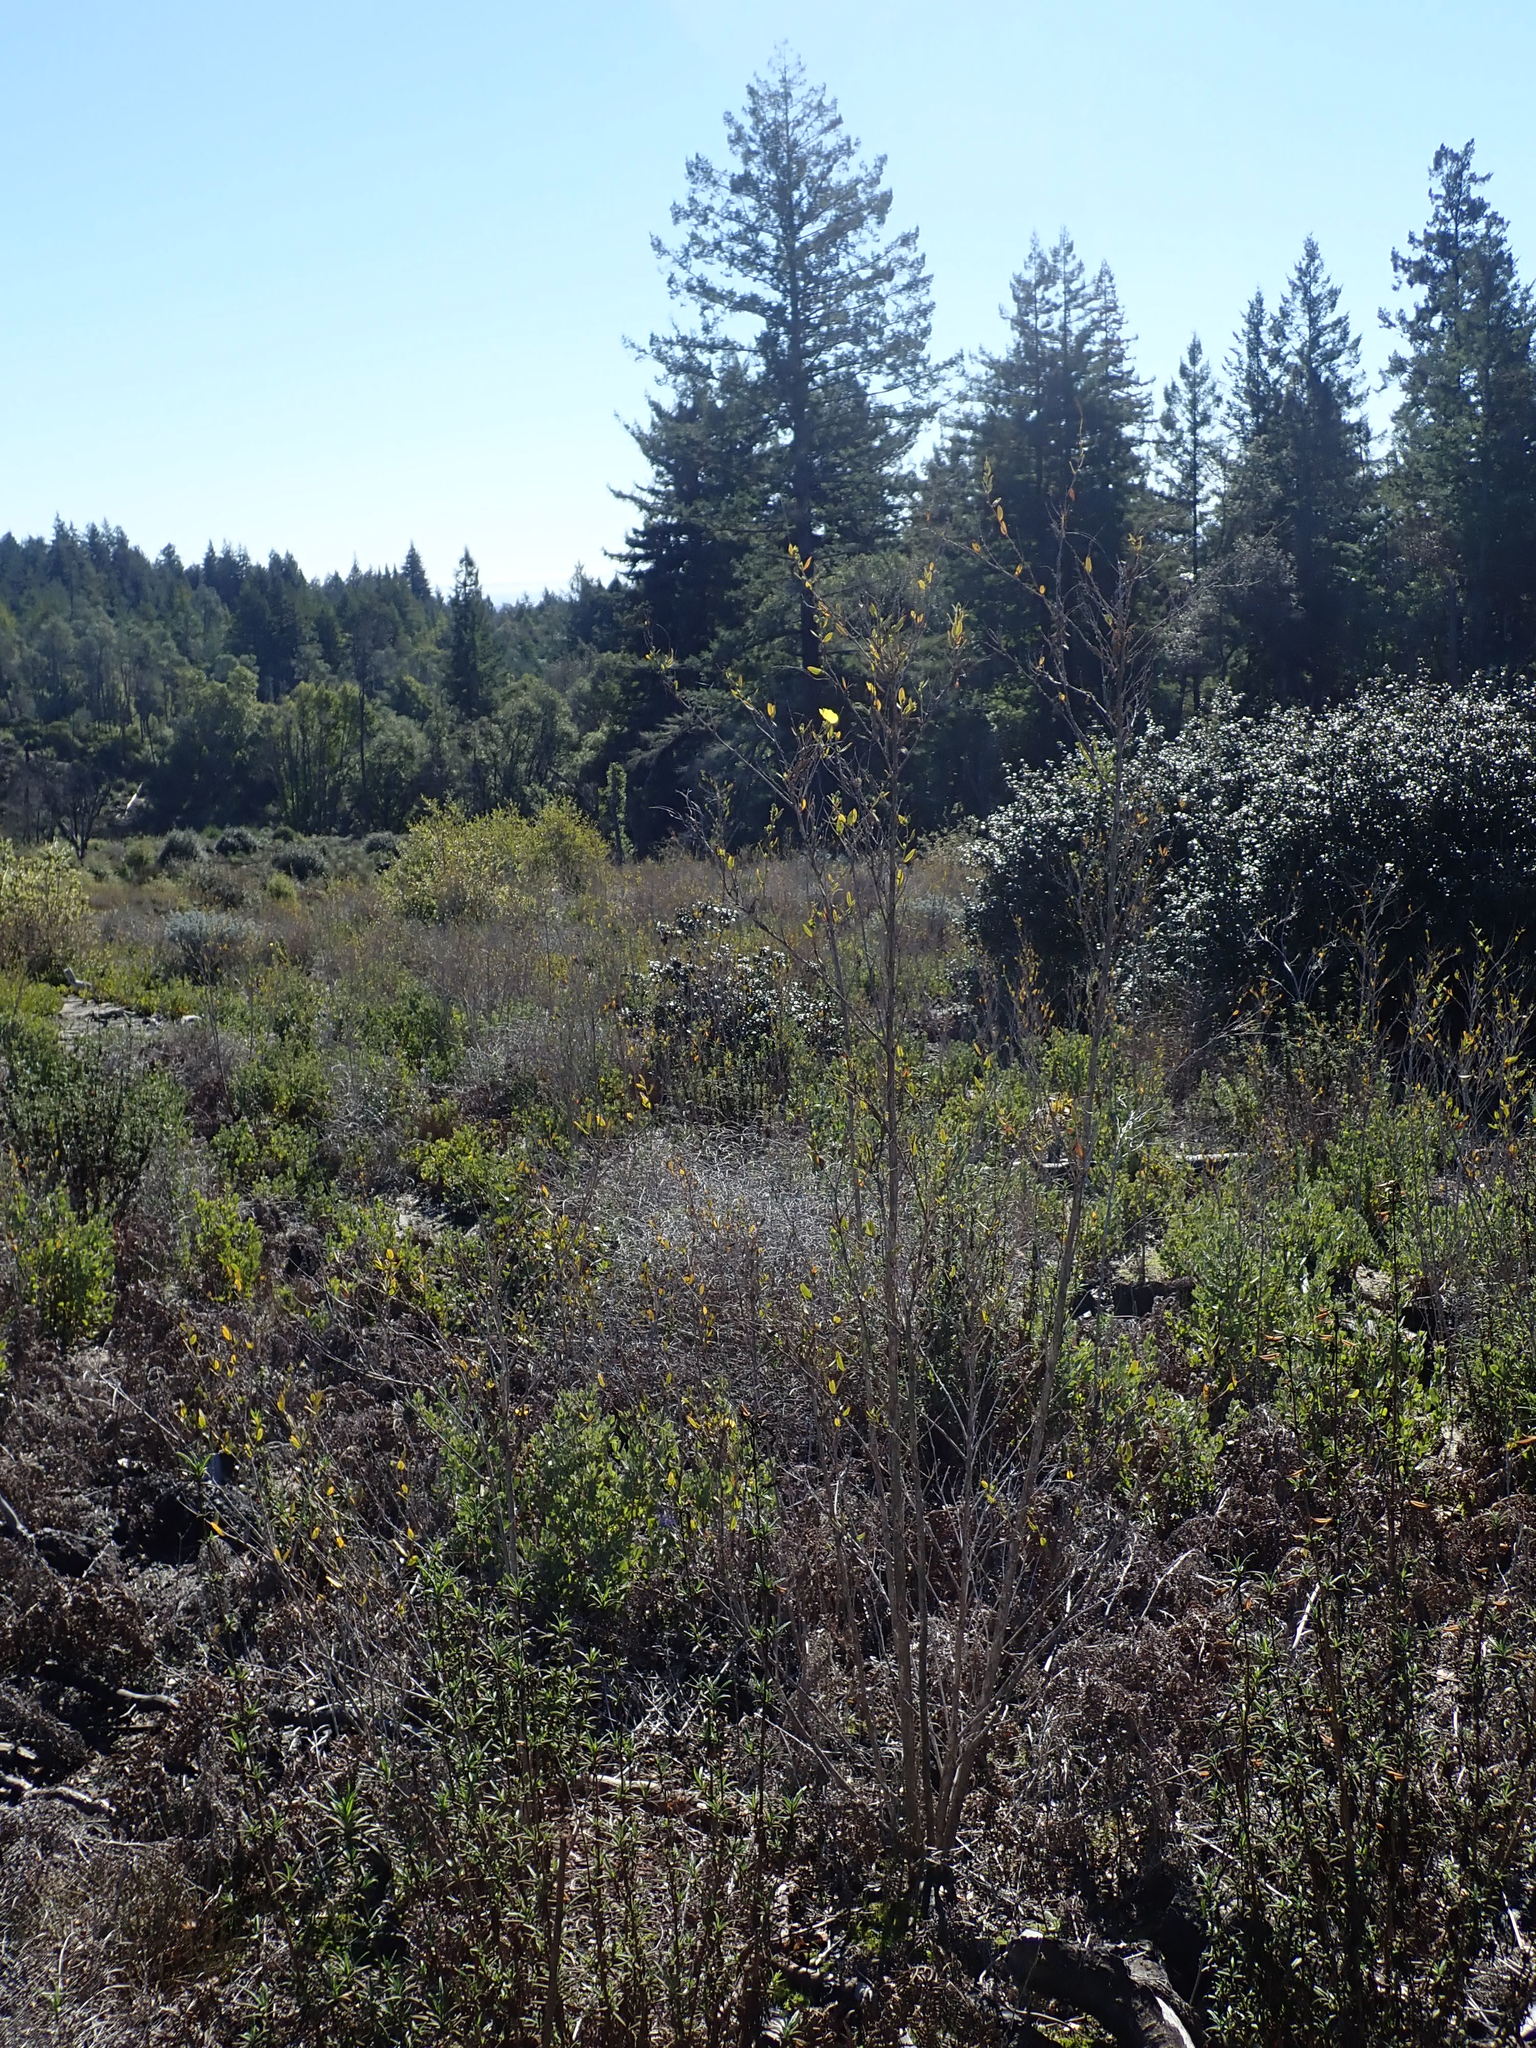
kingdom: Plantae
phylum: Tracheophyta
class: Magnoliopsida
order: Ranunculales
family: Papaveraceae
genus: Dendromecon
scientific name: Dendromecon rigida
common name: Tree poppy
